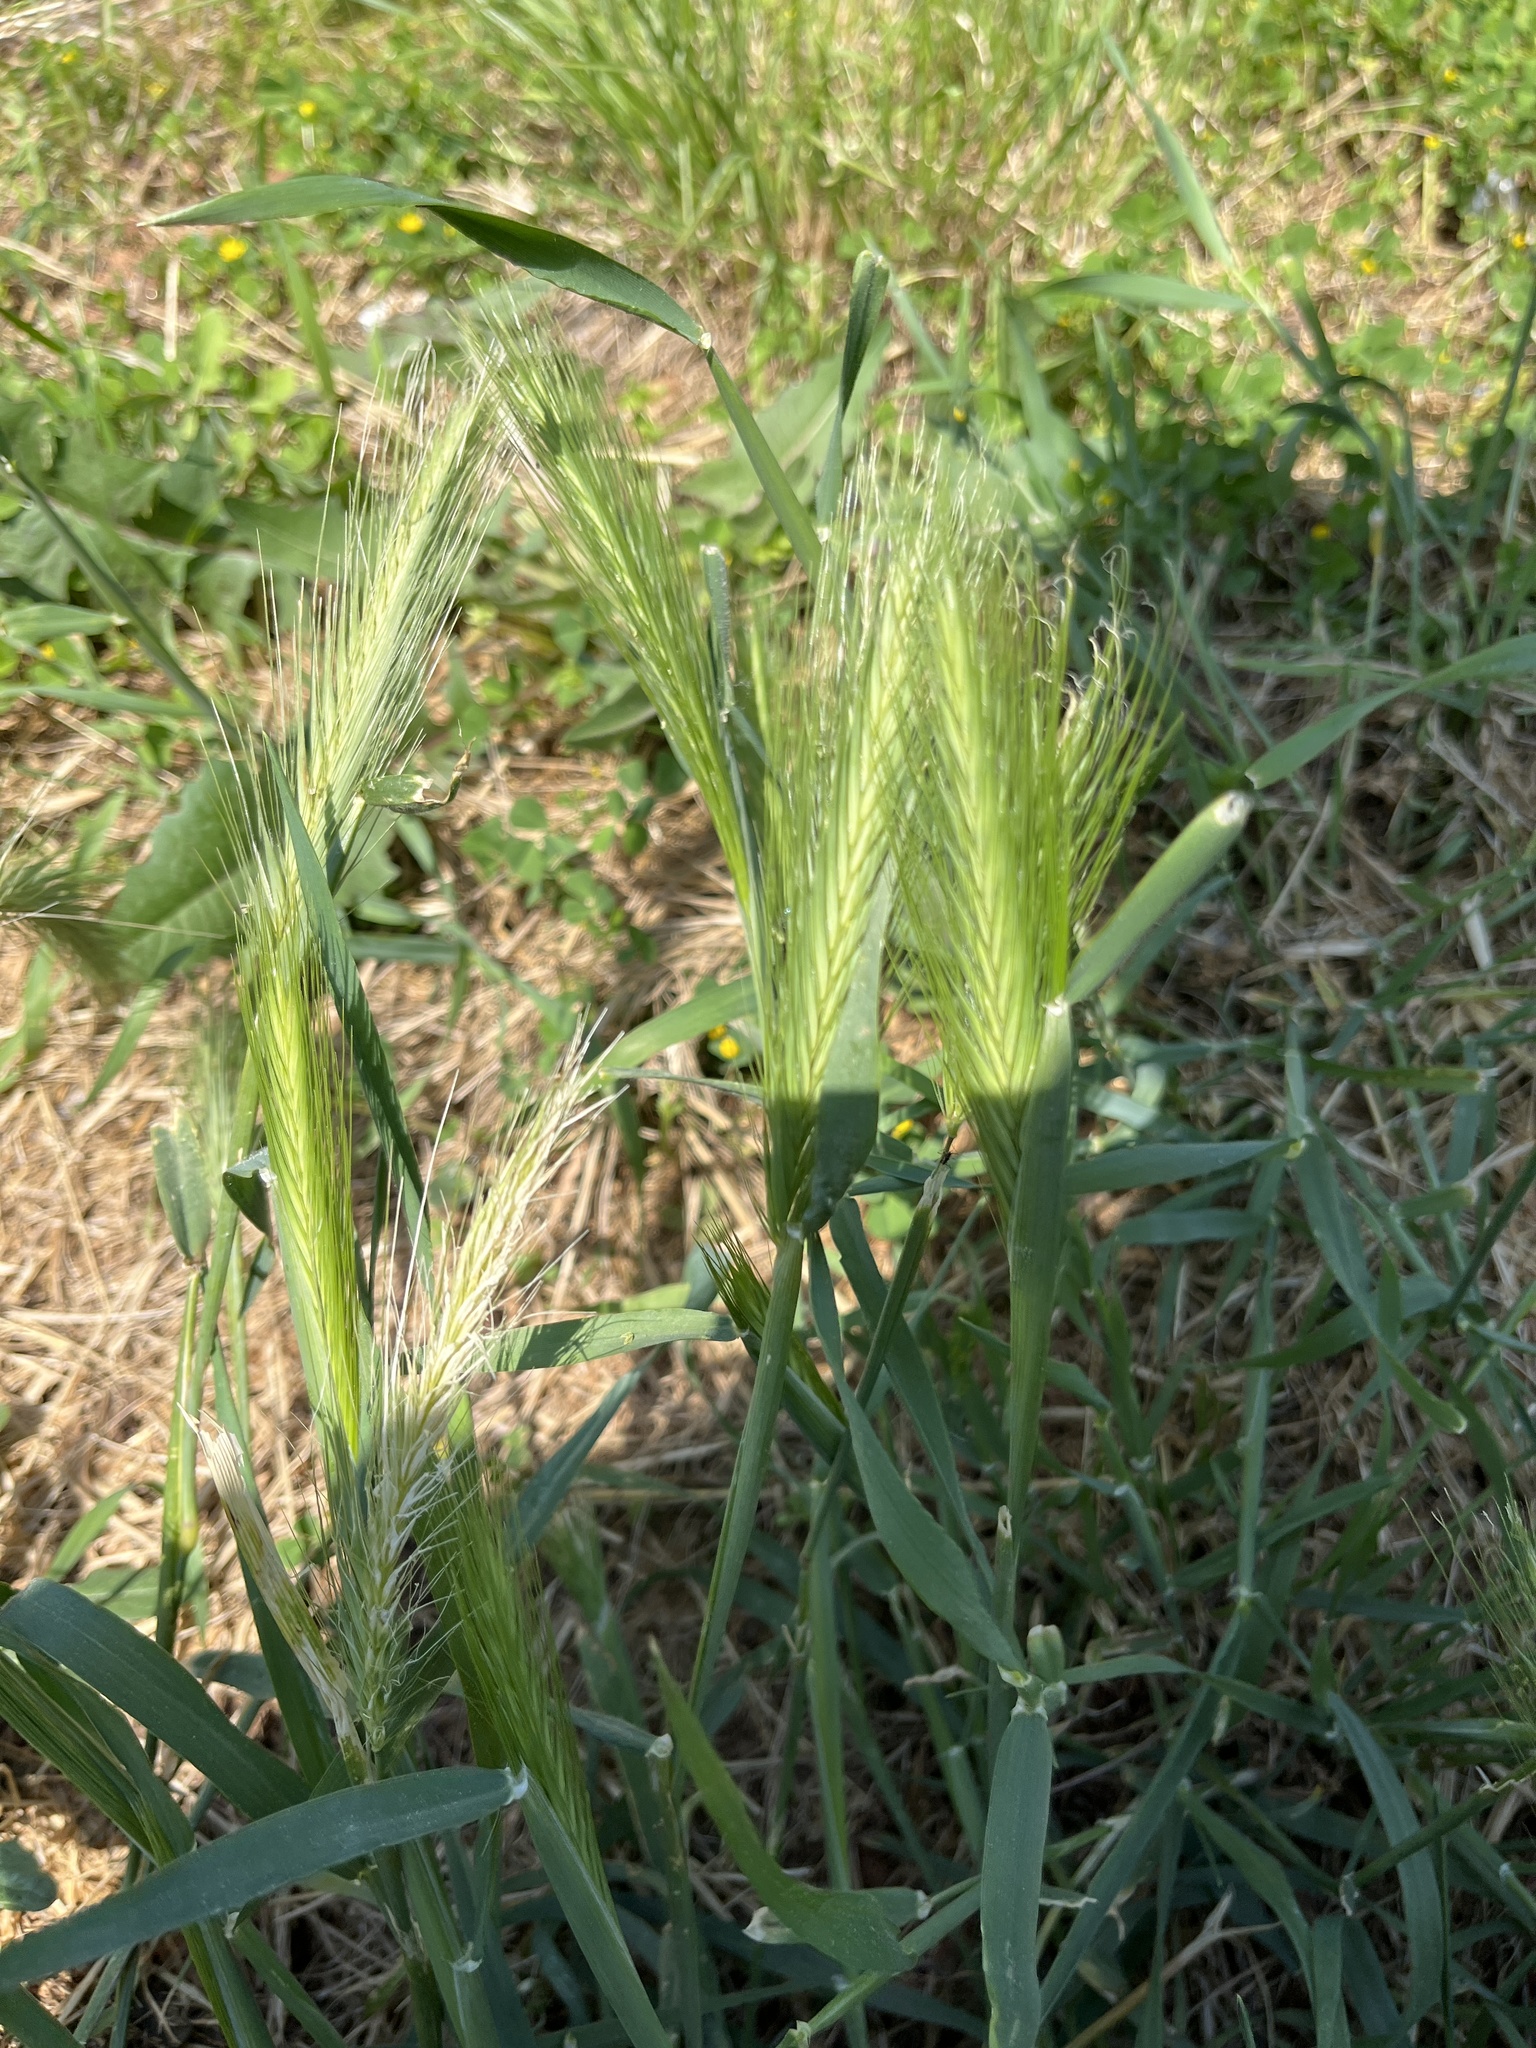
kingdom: Plantae
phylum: Tracheophyta
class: Liliopsida
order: Poales
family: Poaceae
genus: Hordeum
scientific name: Hordeum murinum
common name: Wall barley
